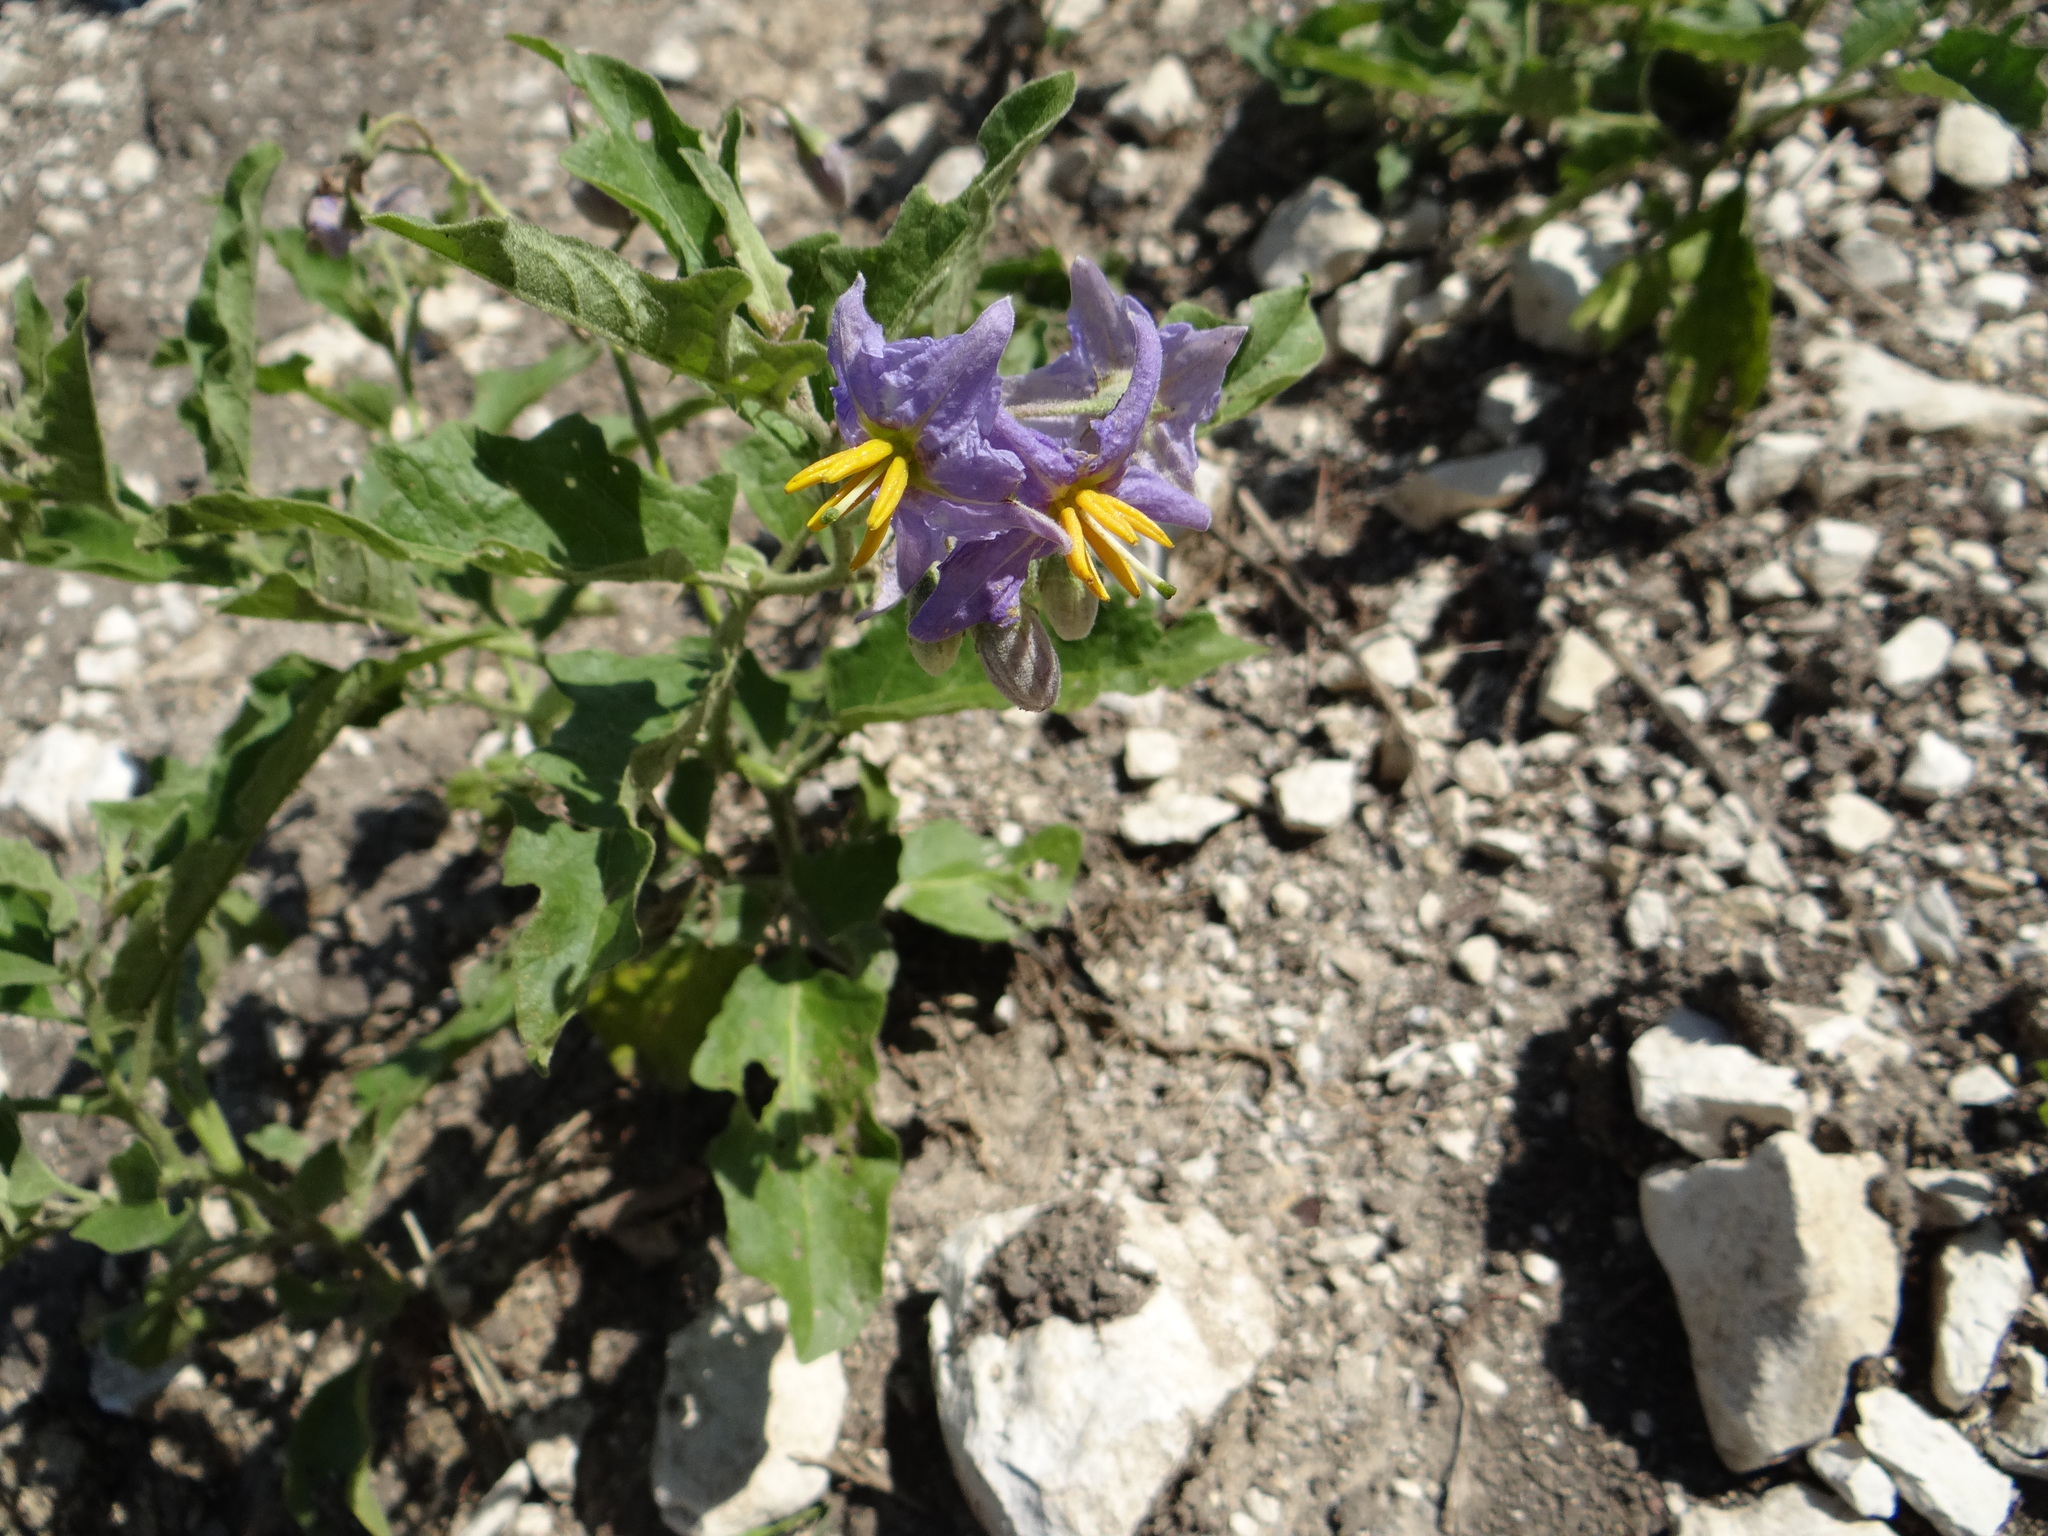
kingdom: Plantae
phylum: Tracheophyta
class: Magnoliopsida
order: Solanales
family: Solanaceae
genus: Solanum
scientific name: Solanum dimidiatum
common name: Carolina horse-nettle
